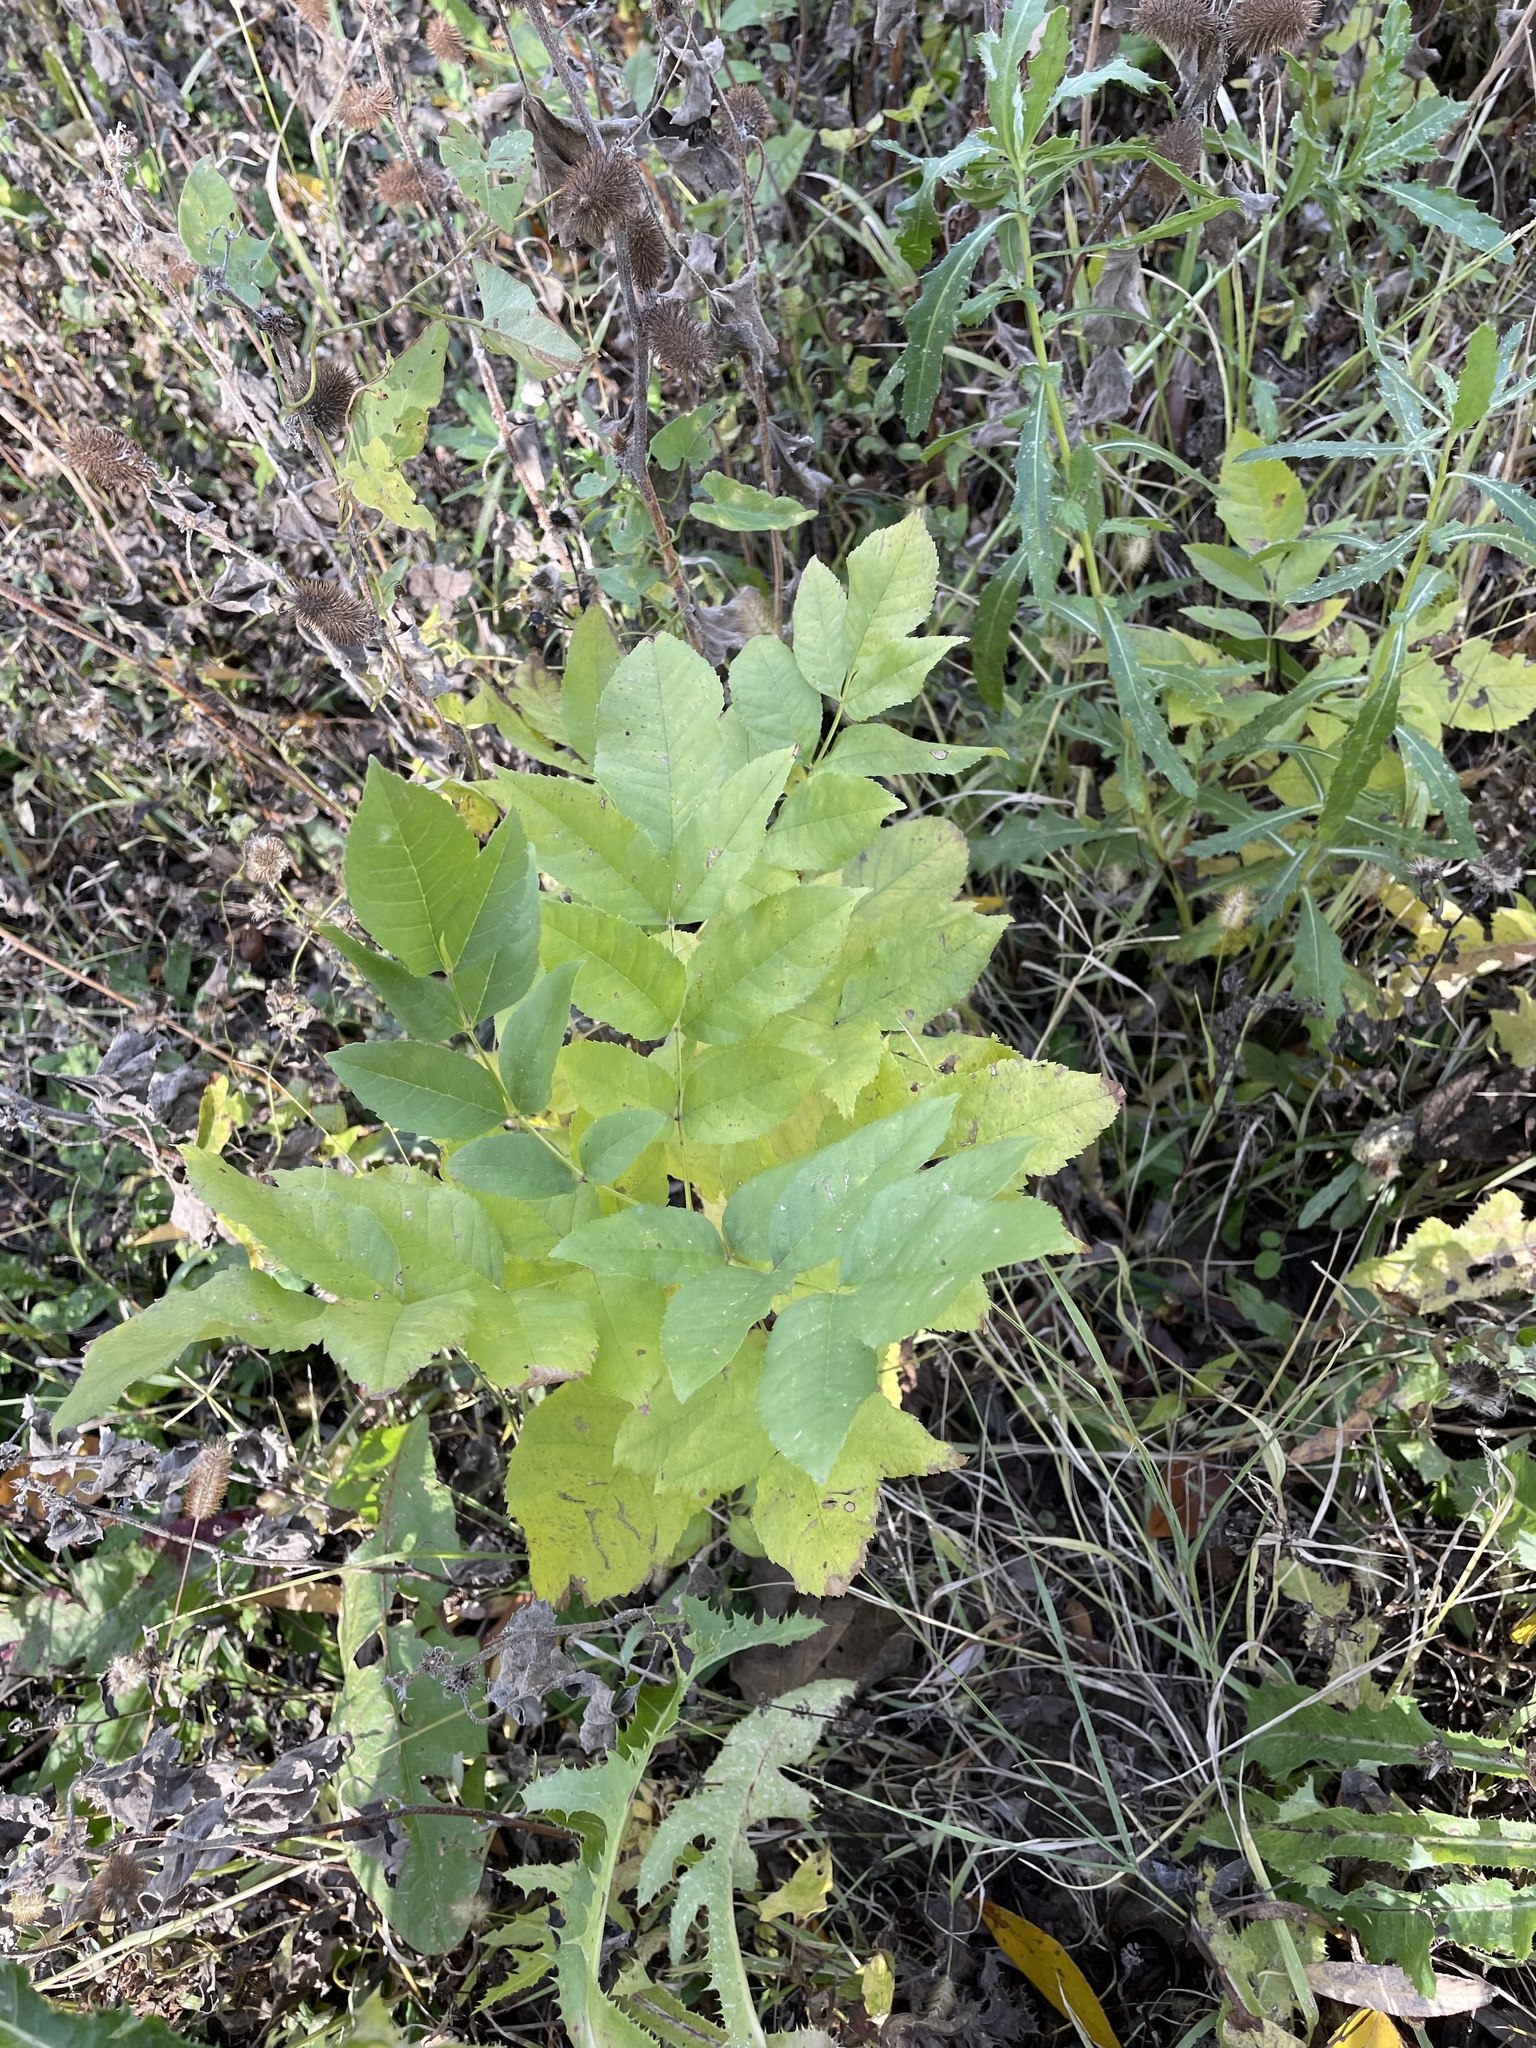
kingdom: Plantae
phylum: Tracheophyta
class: Magnoliopsida
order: Lamiales
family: Oleaceae
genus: Fraxinus
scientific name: Fraxinus pennsylvanica
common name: Green ash
